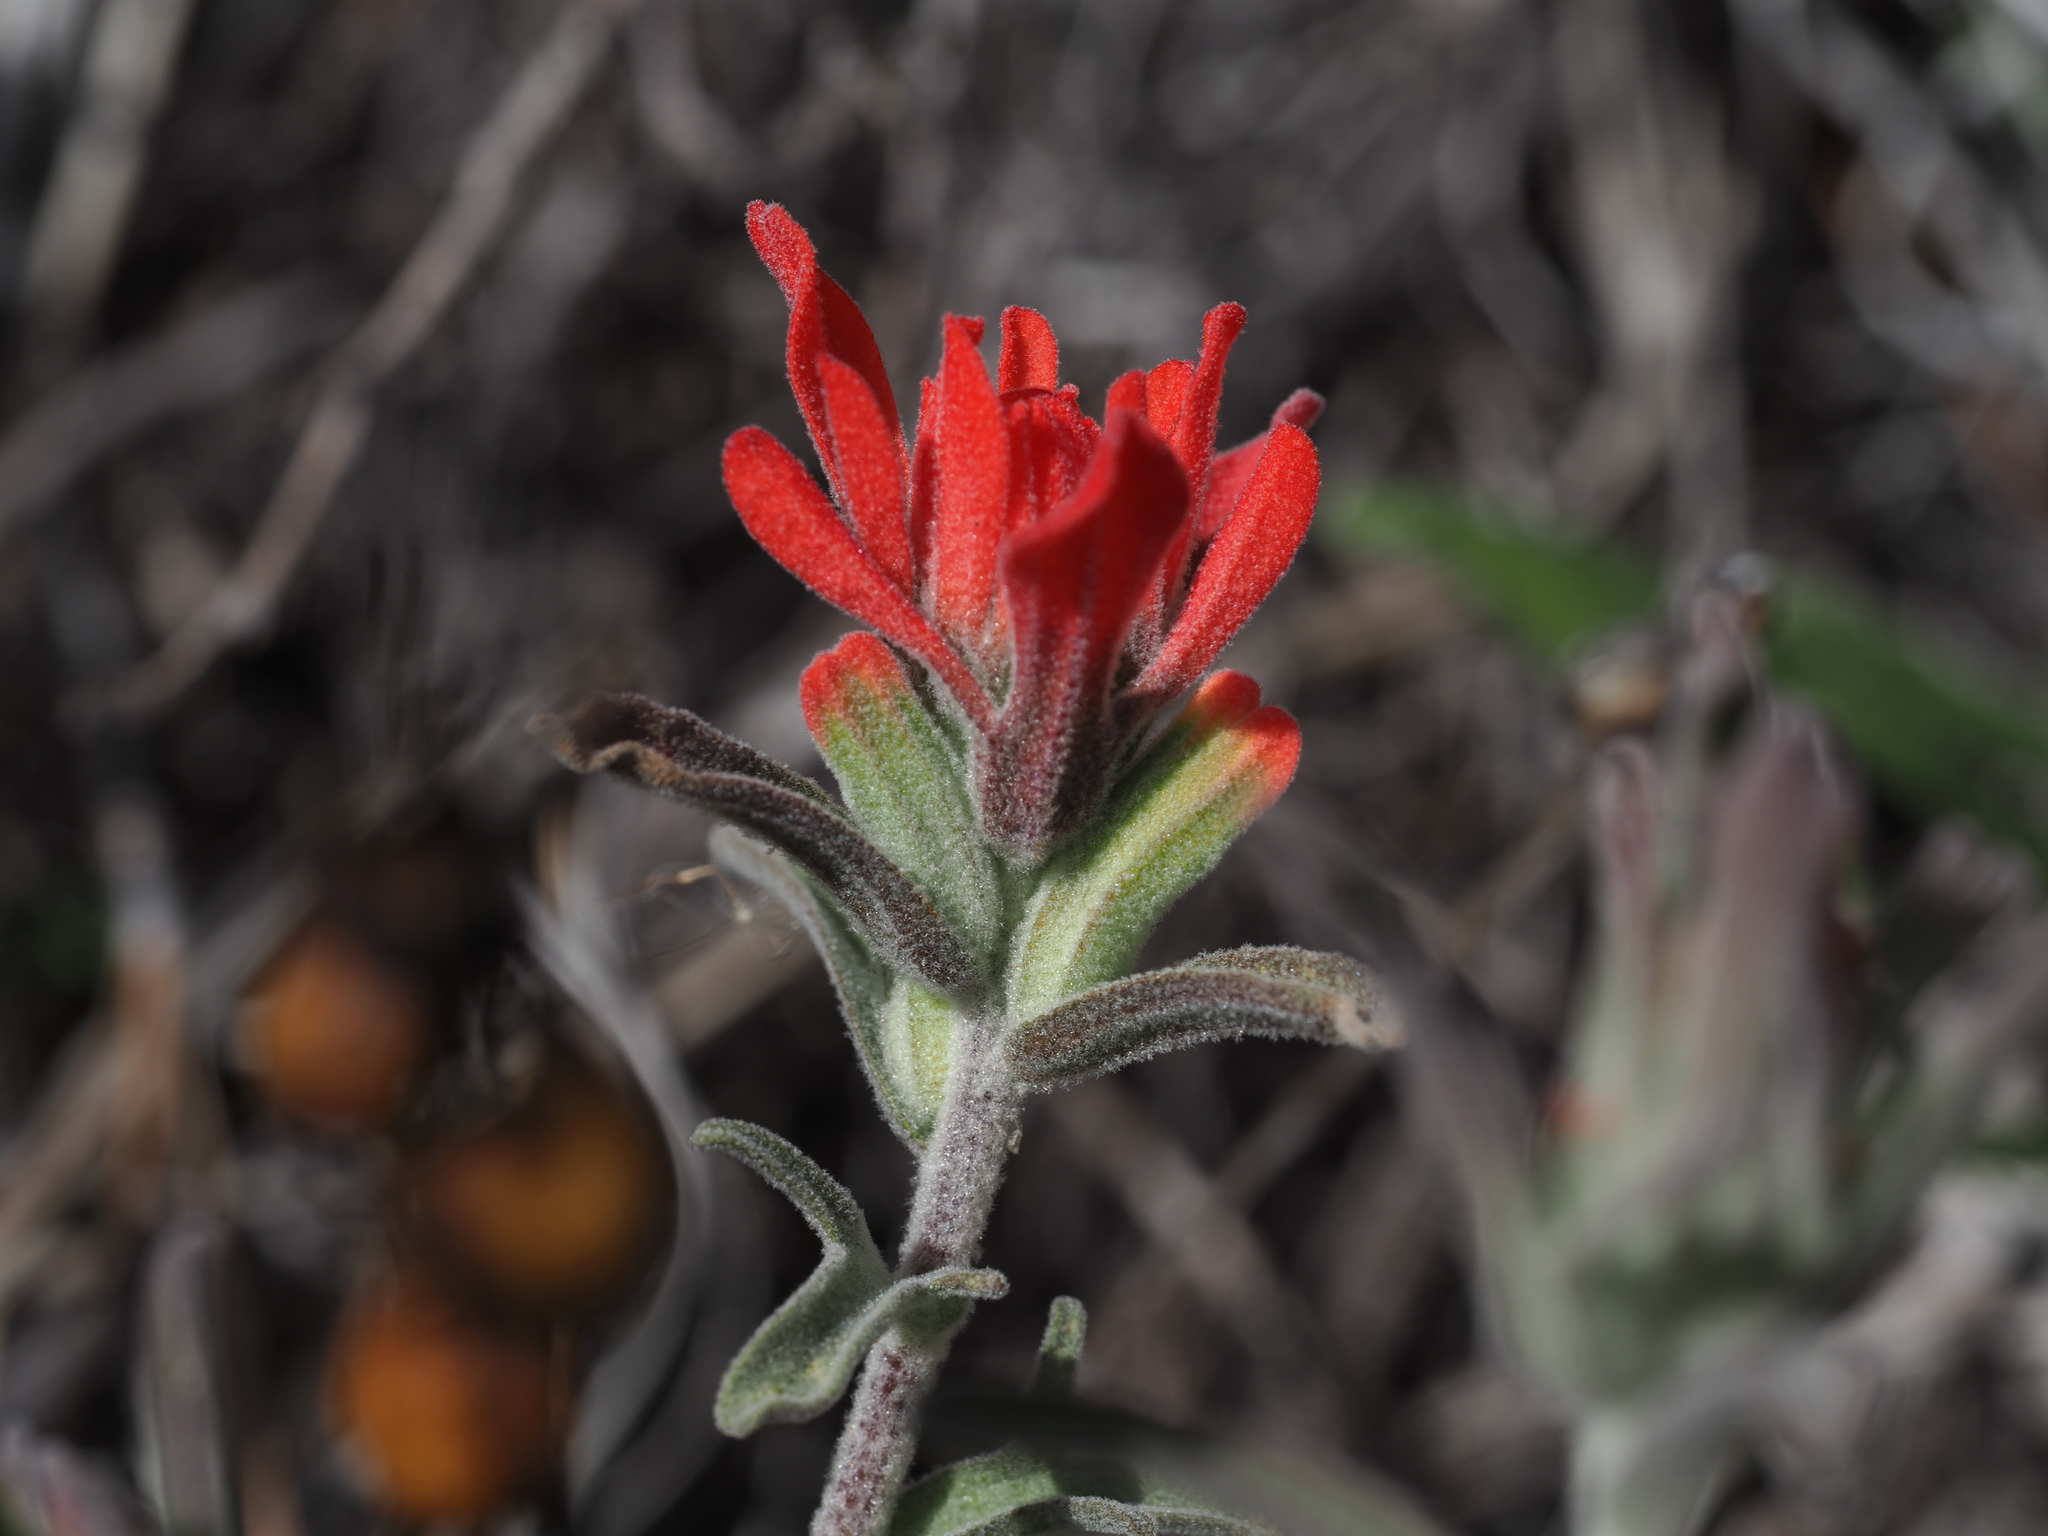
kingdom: Plantae
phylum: Tracheophyta
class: Magnoliopsida
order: Lamiales
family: Orobanchaceae
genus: Castilleja
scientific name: Castilleja foliolosa
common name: Woolly indian paintbrush
